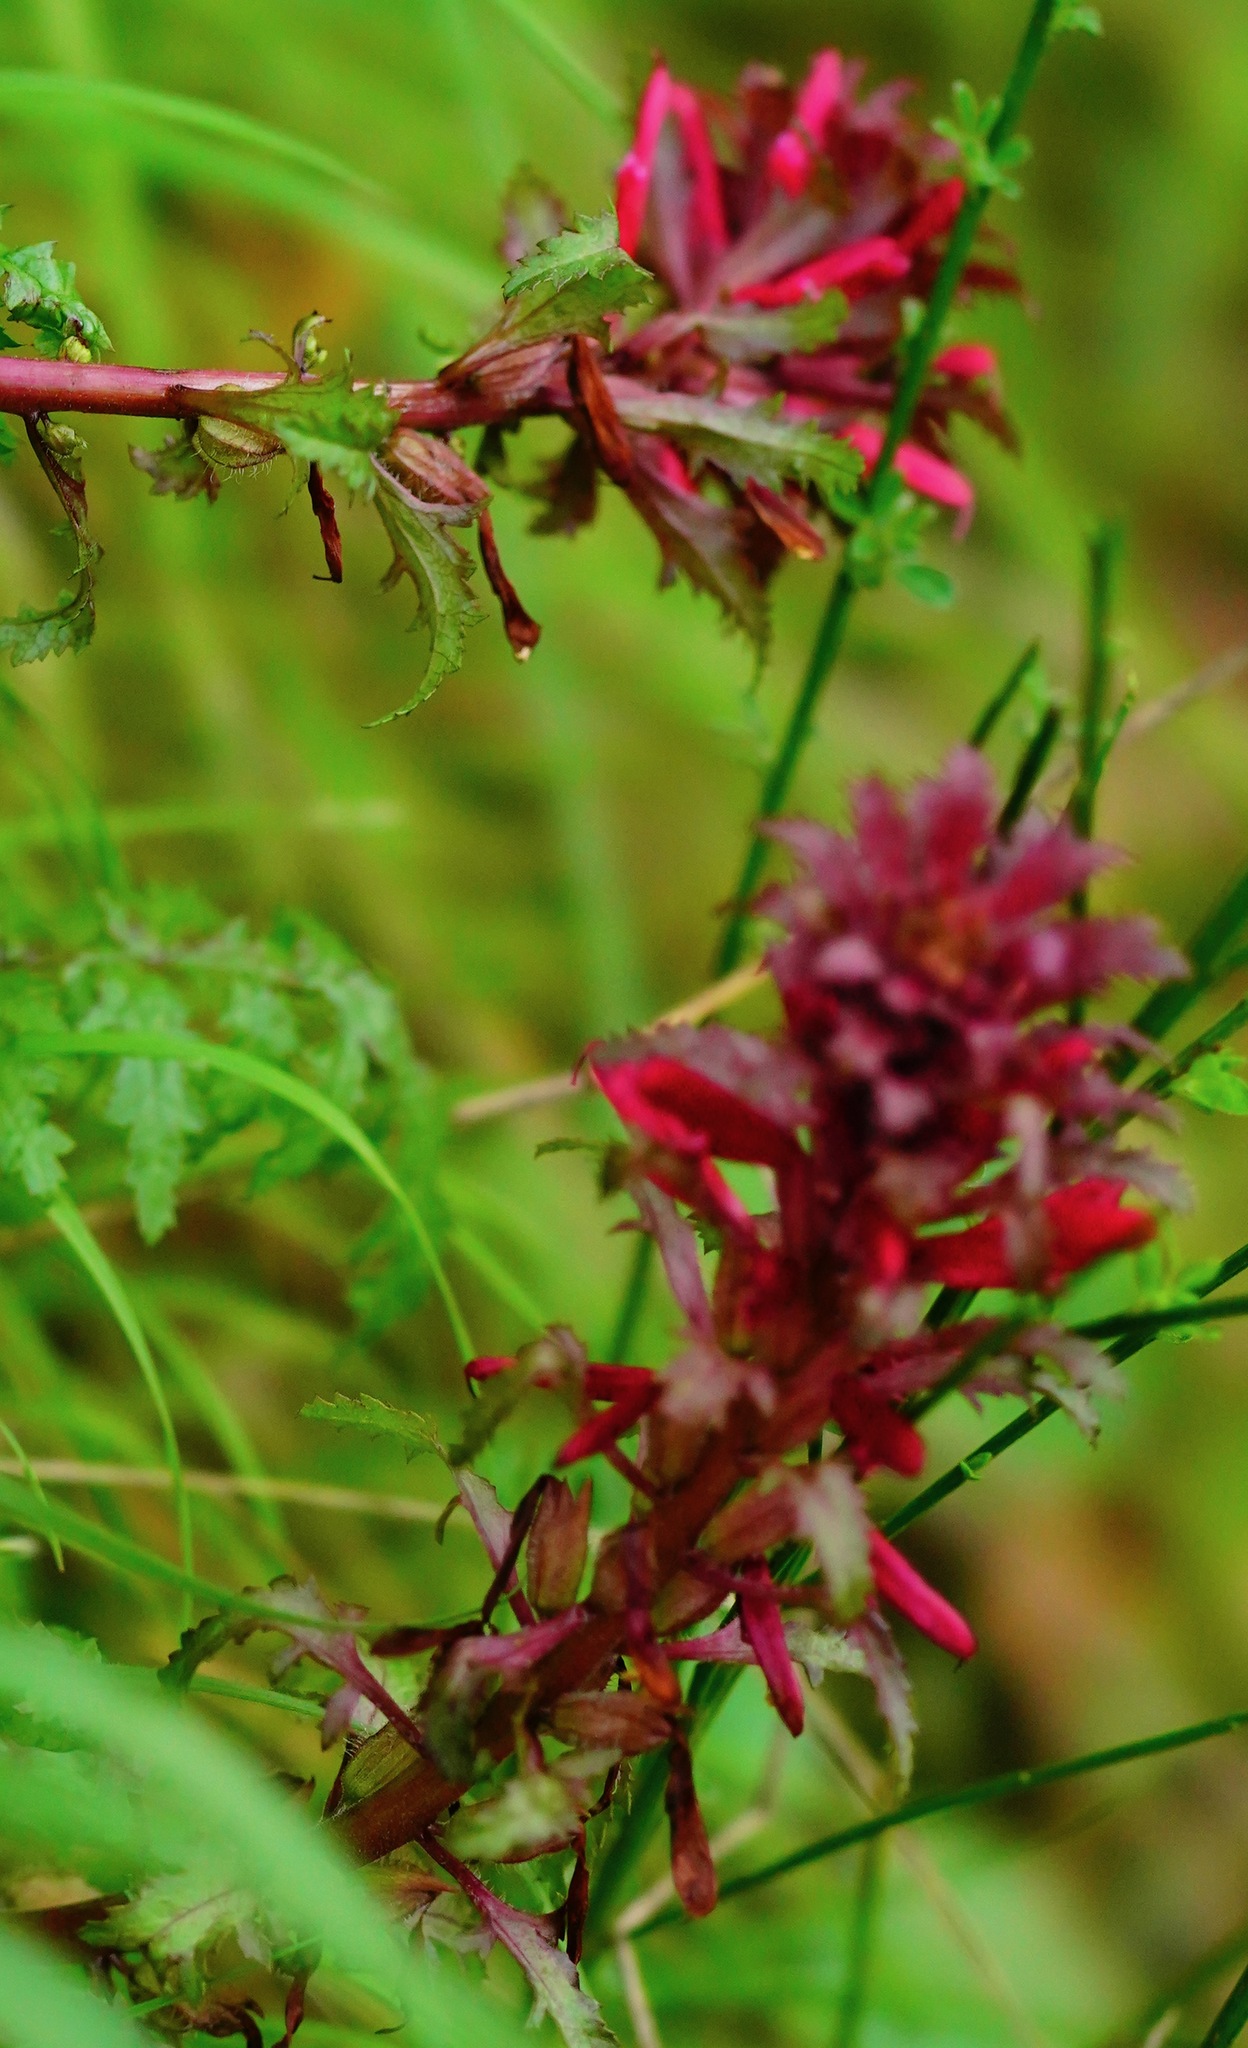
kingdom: Plantae
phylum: Tracheophyta
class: Magnoliopsida
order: Lamiales
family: Orobanchaceae
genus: Pedicularis
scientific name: Pedicularis densiflora
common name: Indian warrior
